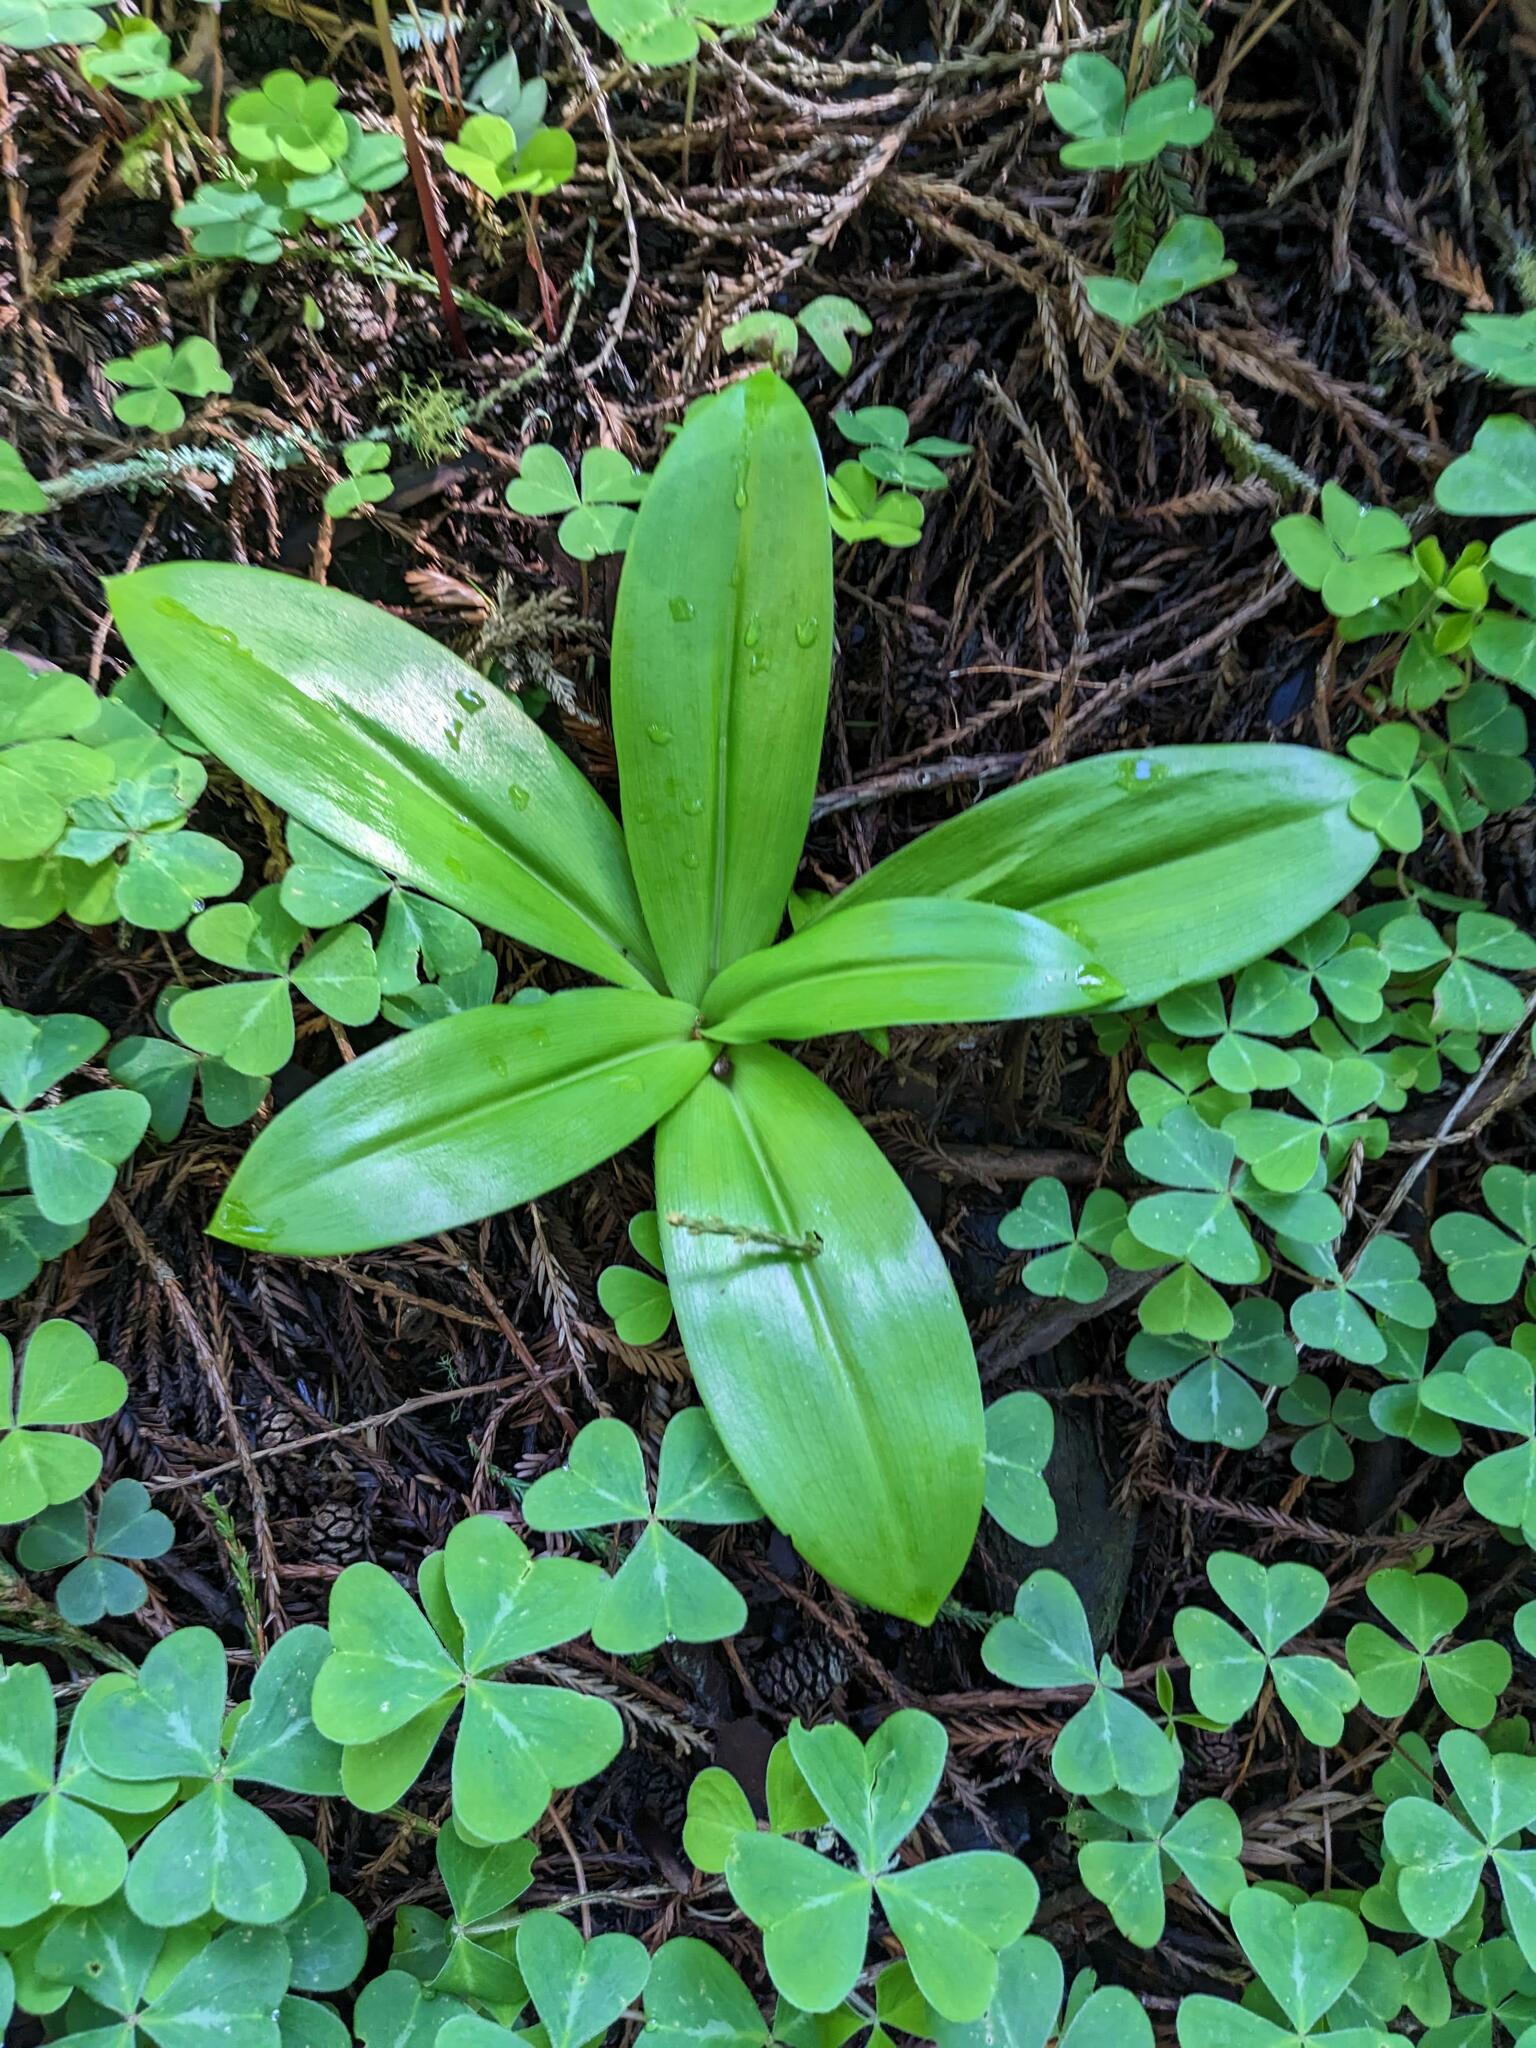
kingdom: Plantae
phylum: Tracheophyta
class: Liliopsida
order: Liliales
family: Liliaceae
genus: Clintonia
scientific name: Clintonia andrewsiana
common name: Red clintonia
